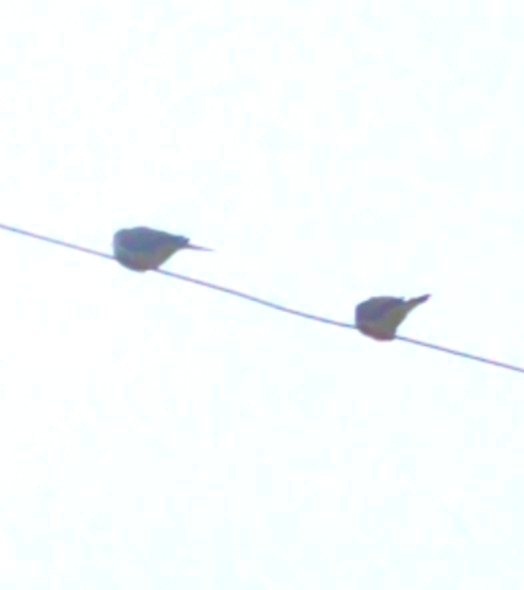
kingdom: Animalia
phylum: Chordata
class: Aves
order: Columbiformes
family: Columbidae
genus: Zenaida
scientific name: Zenaida macroura
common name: Mourning dove
